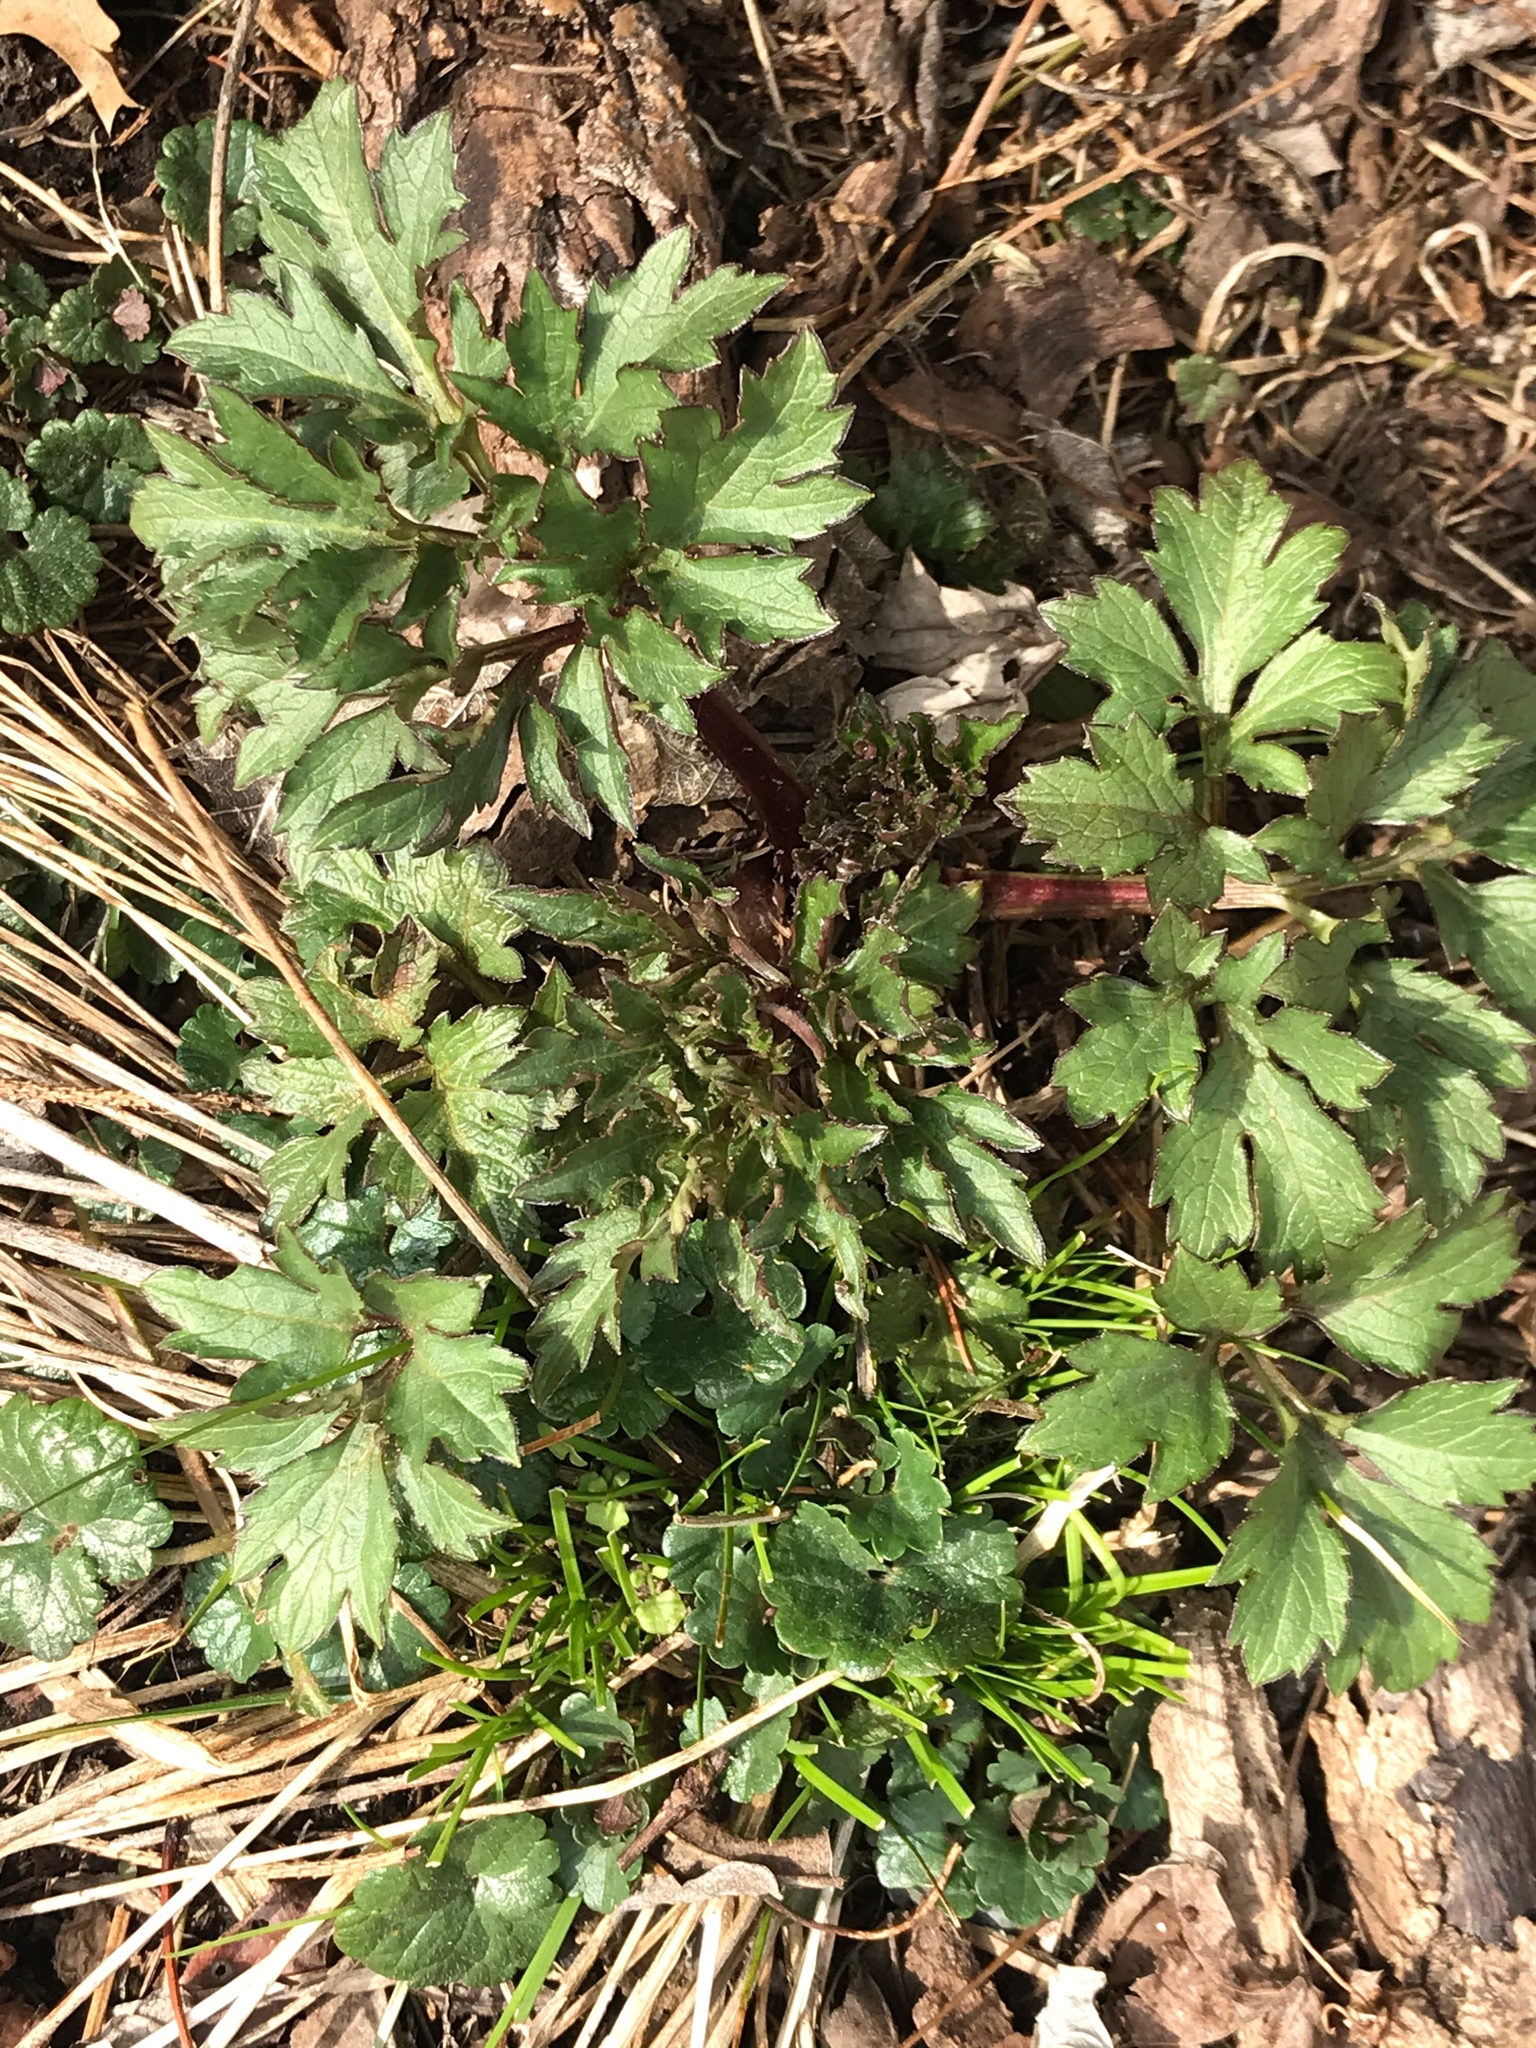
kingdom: Plantae
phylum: Tracheophyta
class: Magnoliopsida
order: Asterales
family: Asteraceae
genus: Rudbeckia
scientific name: Rudbeckia laciniata
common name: Coneflower
